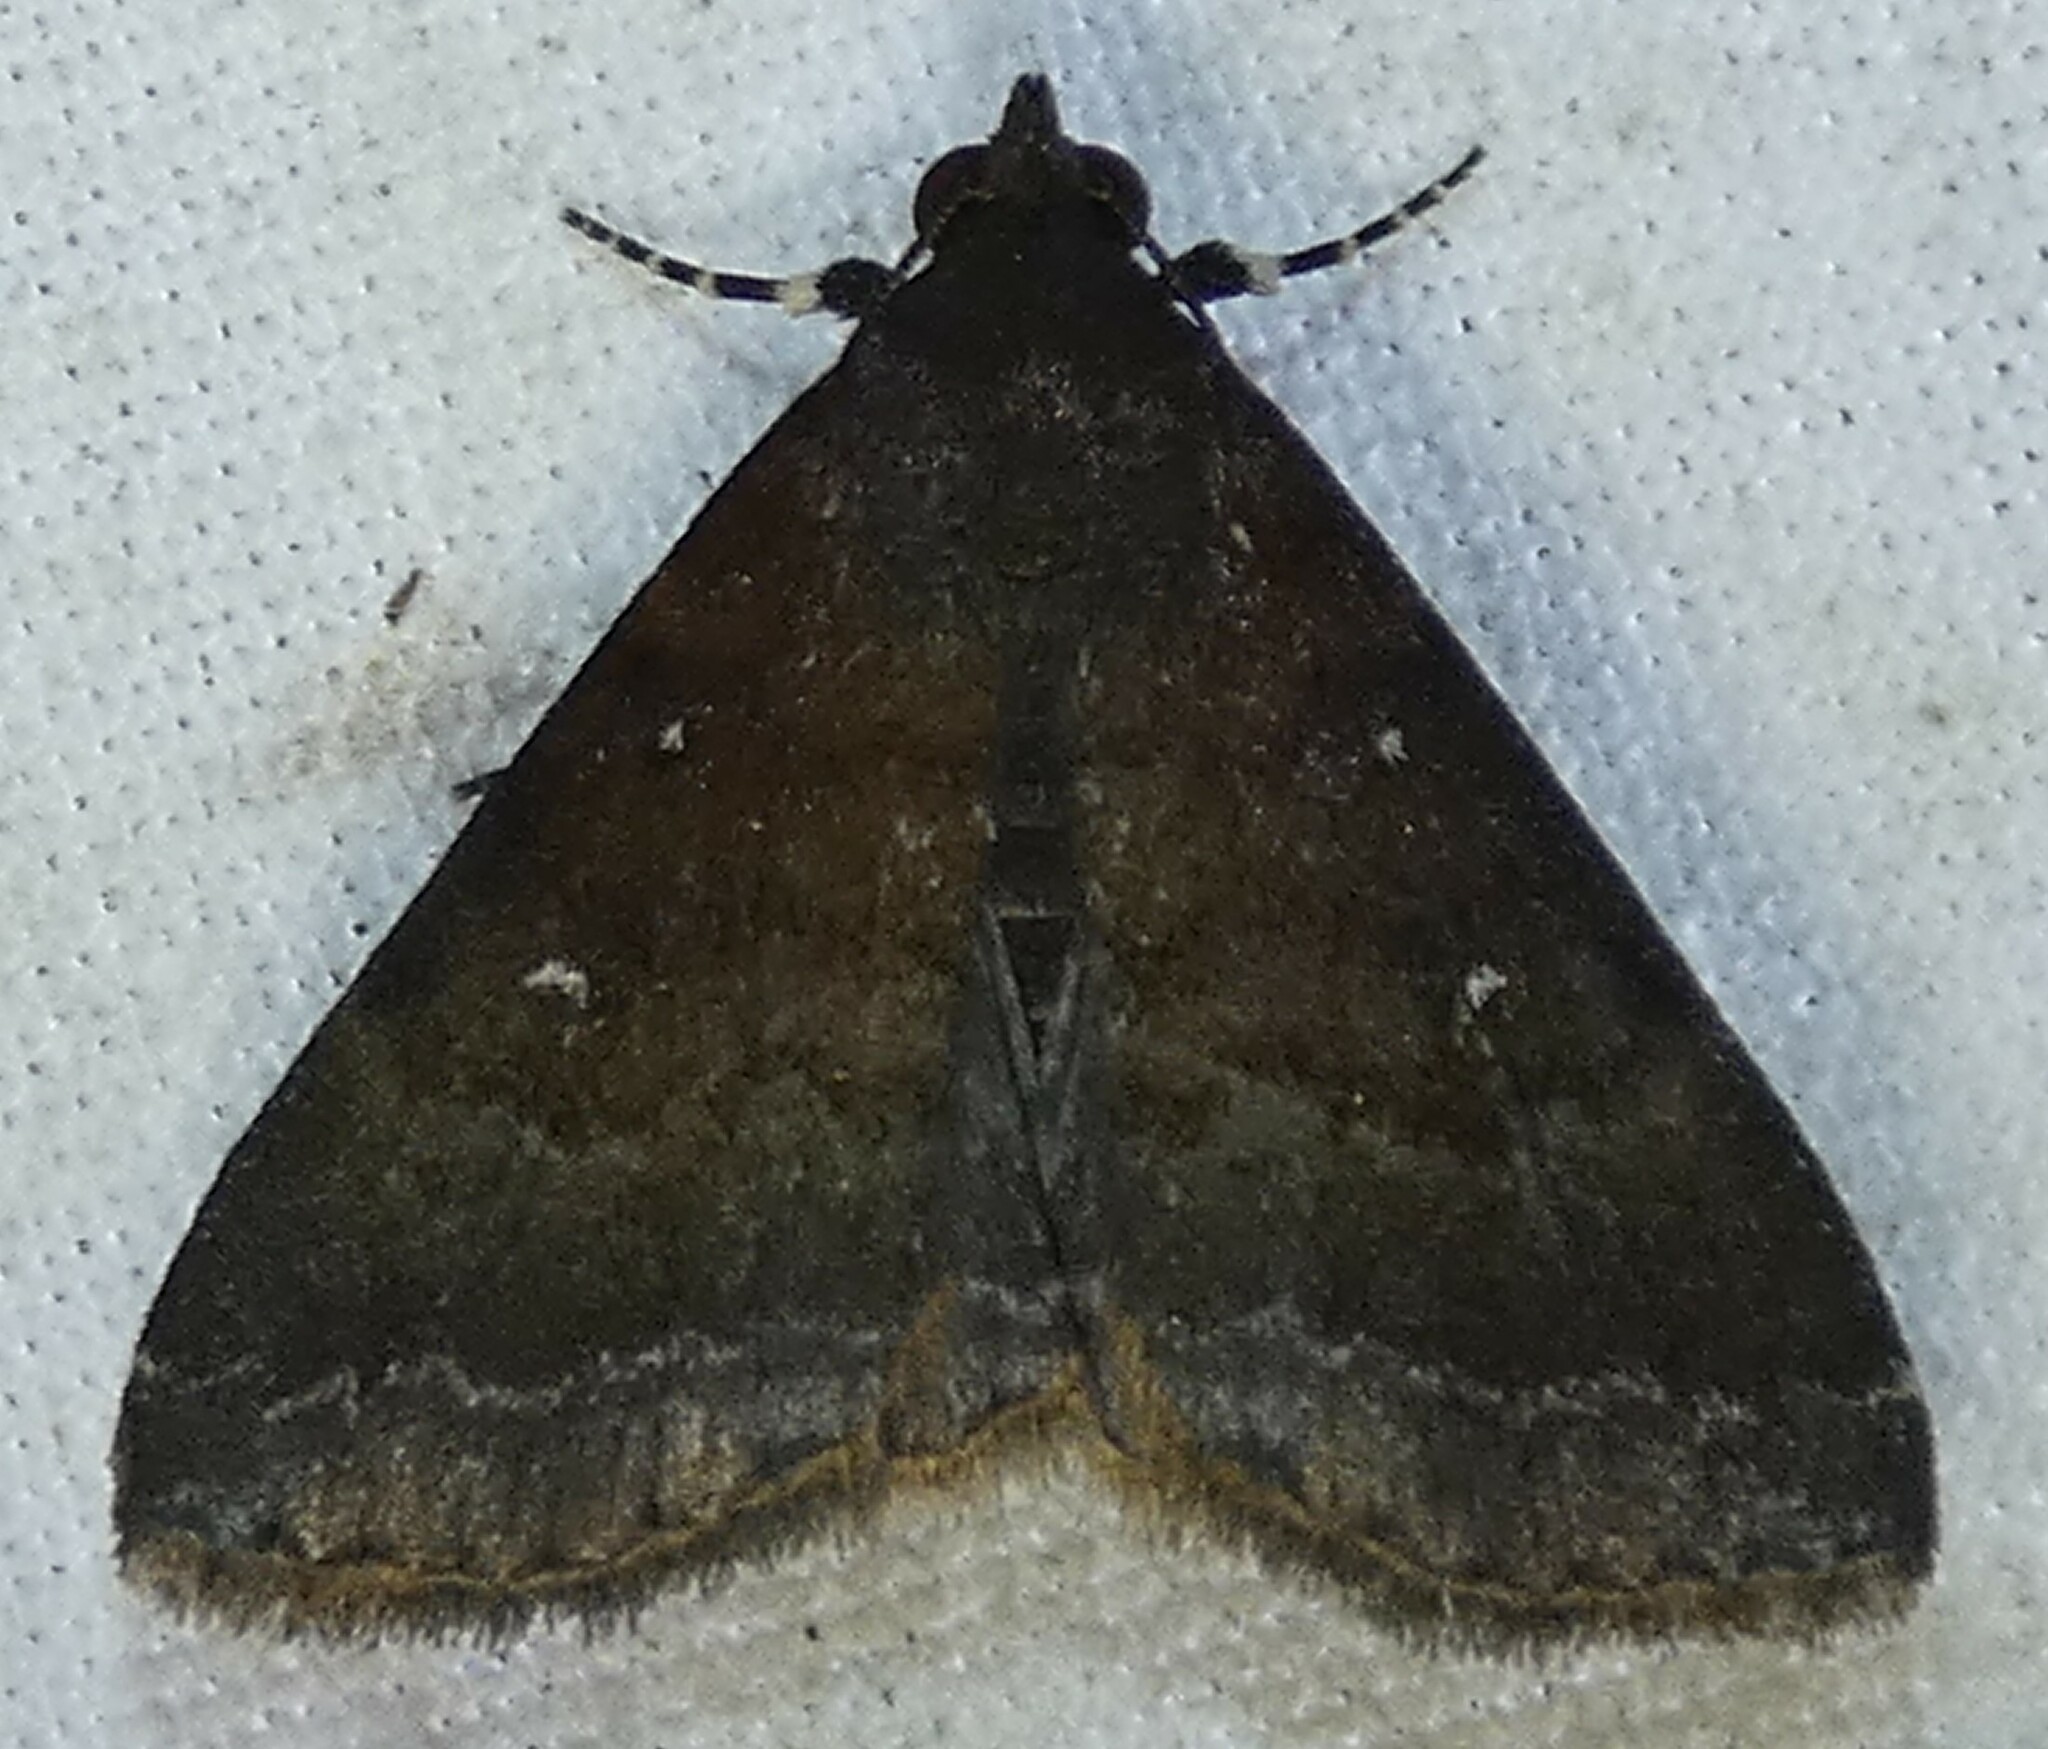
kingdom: Animalia
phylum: Arthropoda
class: Insecta
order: Lepidoptera
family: Erebidae
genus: Physula
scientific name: Physula albipunctilla
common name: Cutworm moth
